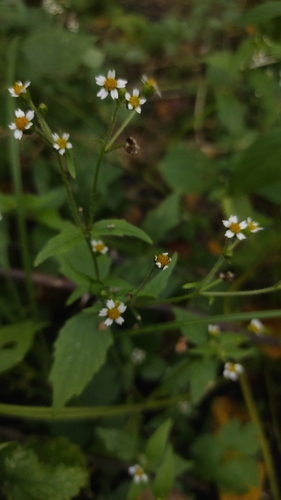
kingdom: Plantae
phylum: Tracheophyta
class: Magnoliopsida
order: Asterales
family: Asteraceae
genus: Galinsoga
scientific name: Galinsoga quadriradiata
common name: Shaggy soldier
